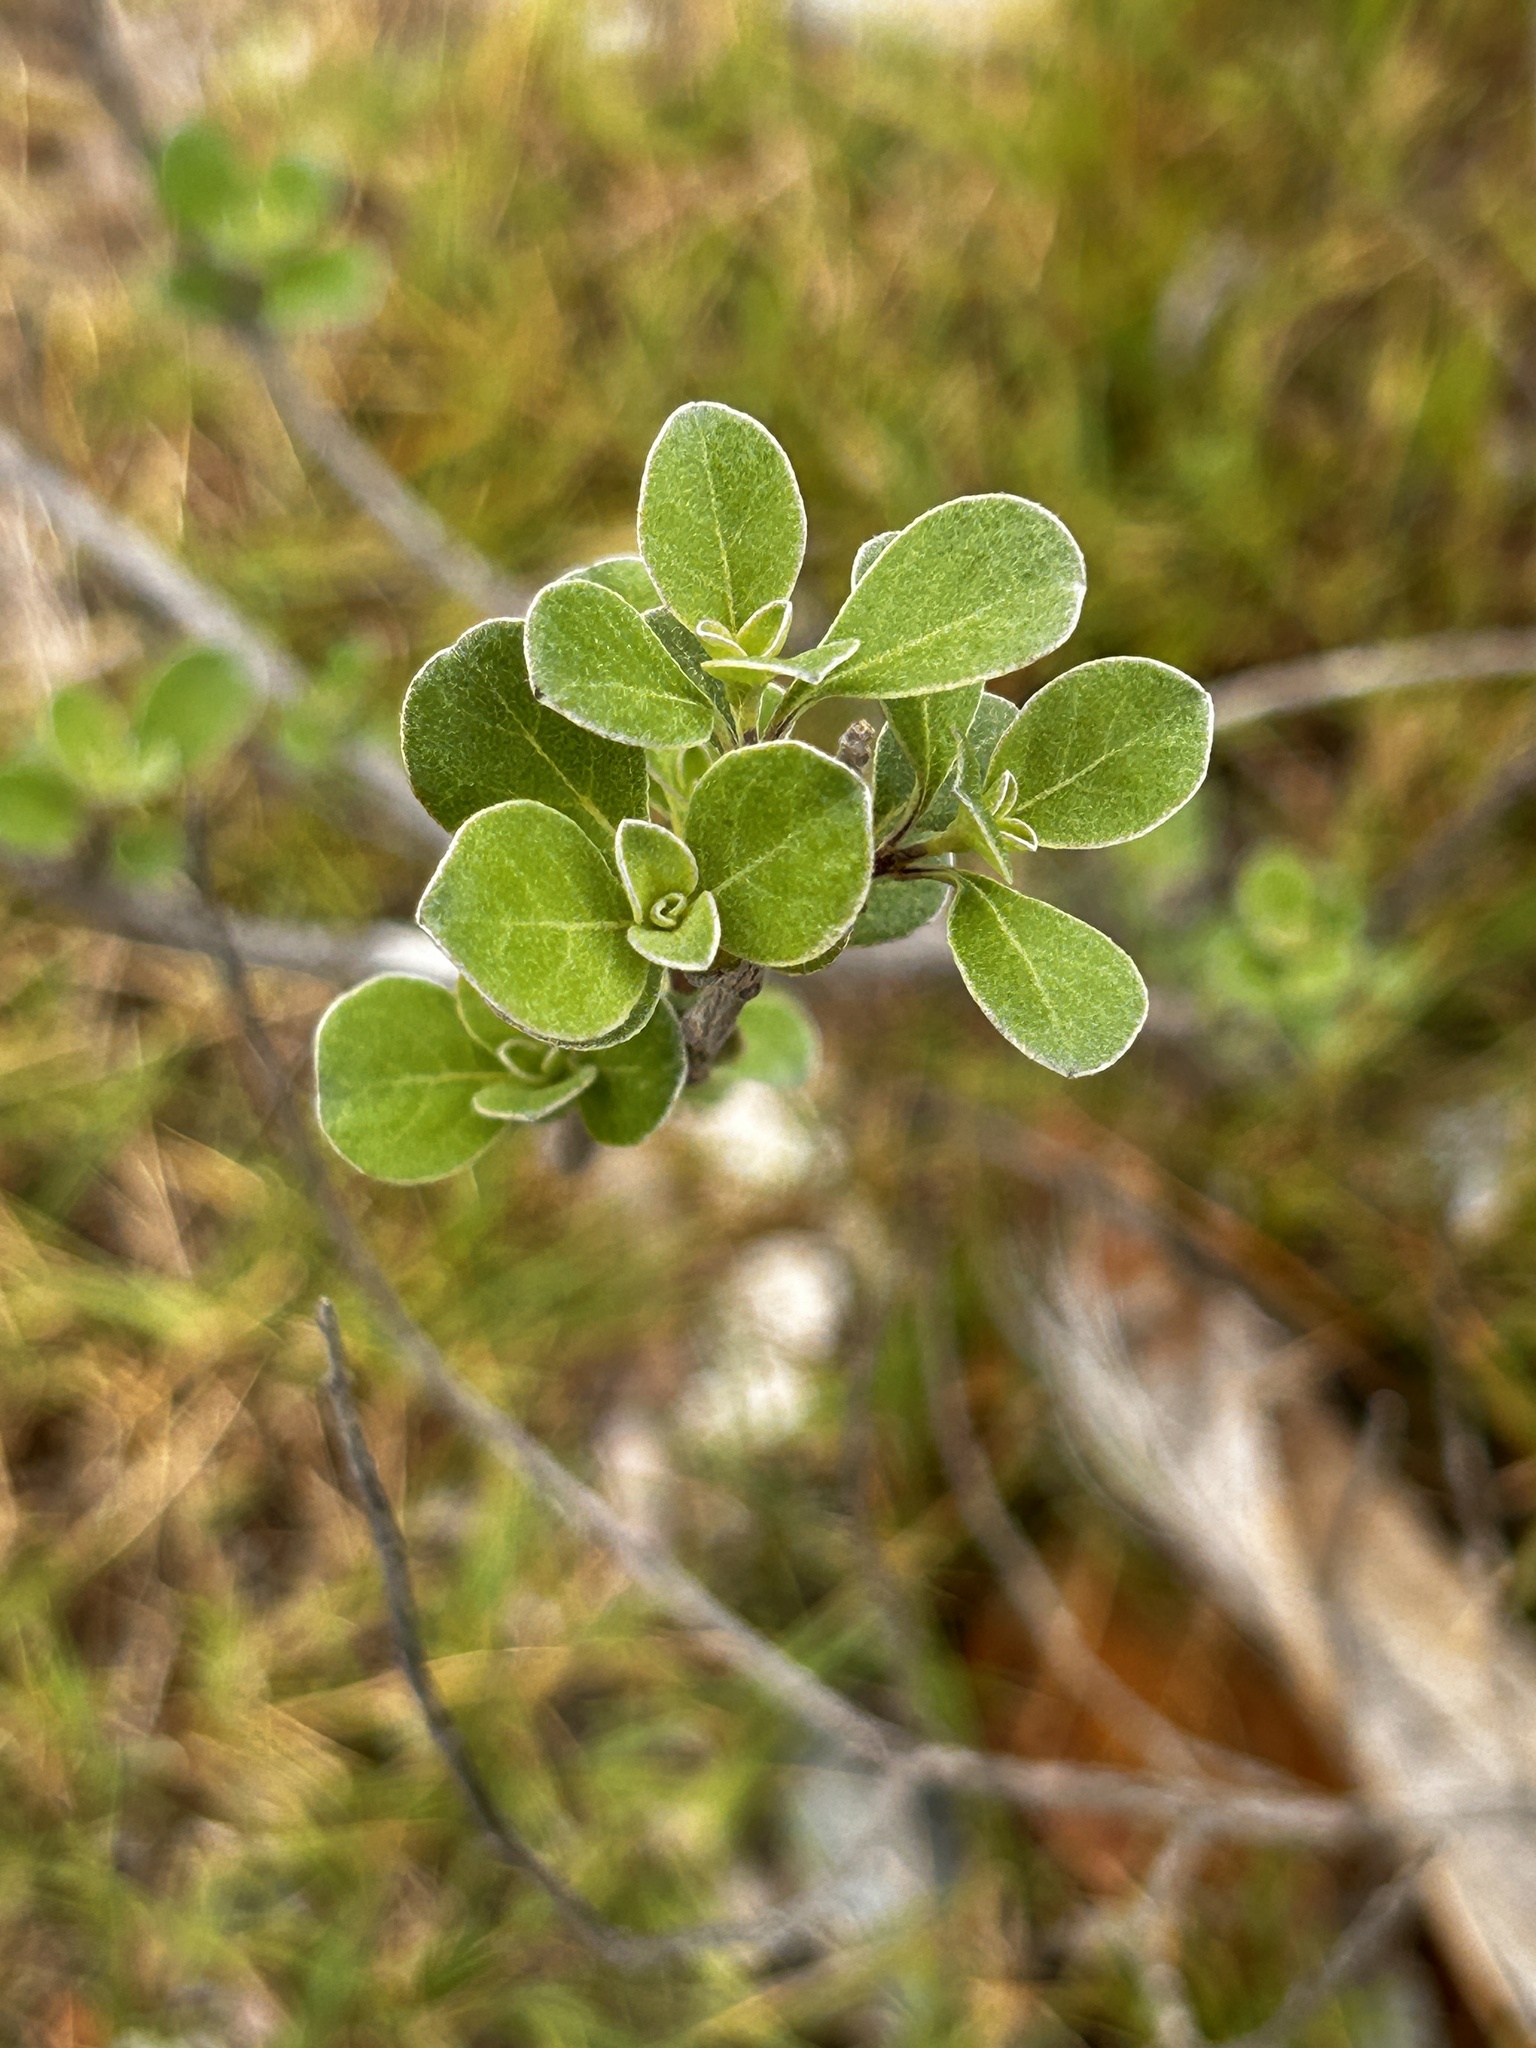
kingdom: Plantae
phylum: Tracheophyta
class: Magnoliopsida
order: Lamiales
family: Lamiaceae
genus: Vitex
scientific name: Vitex rotundifolia
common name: Beach vitex
